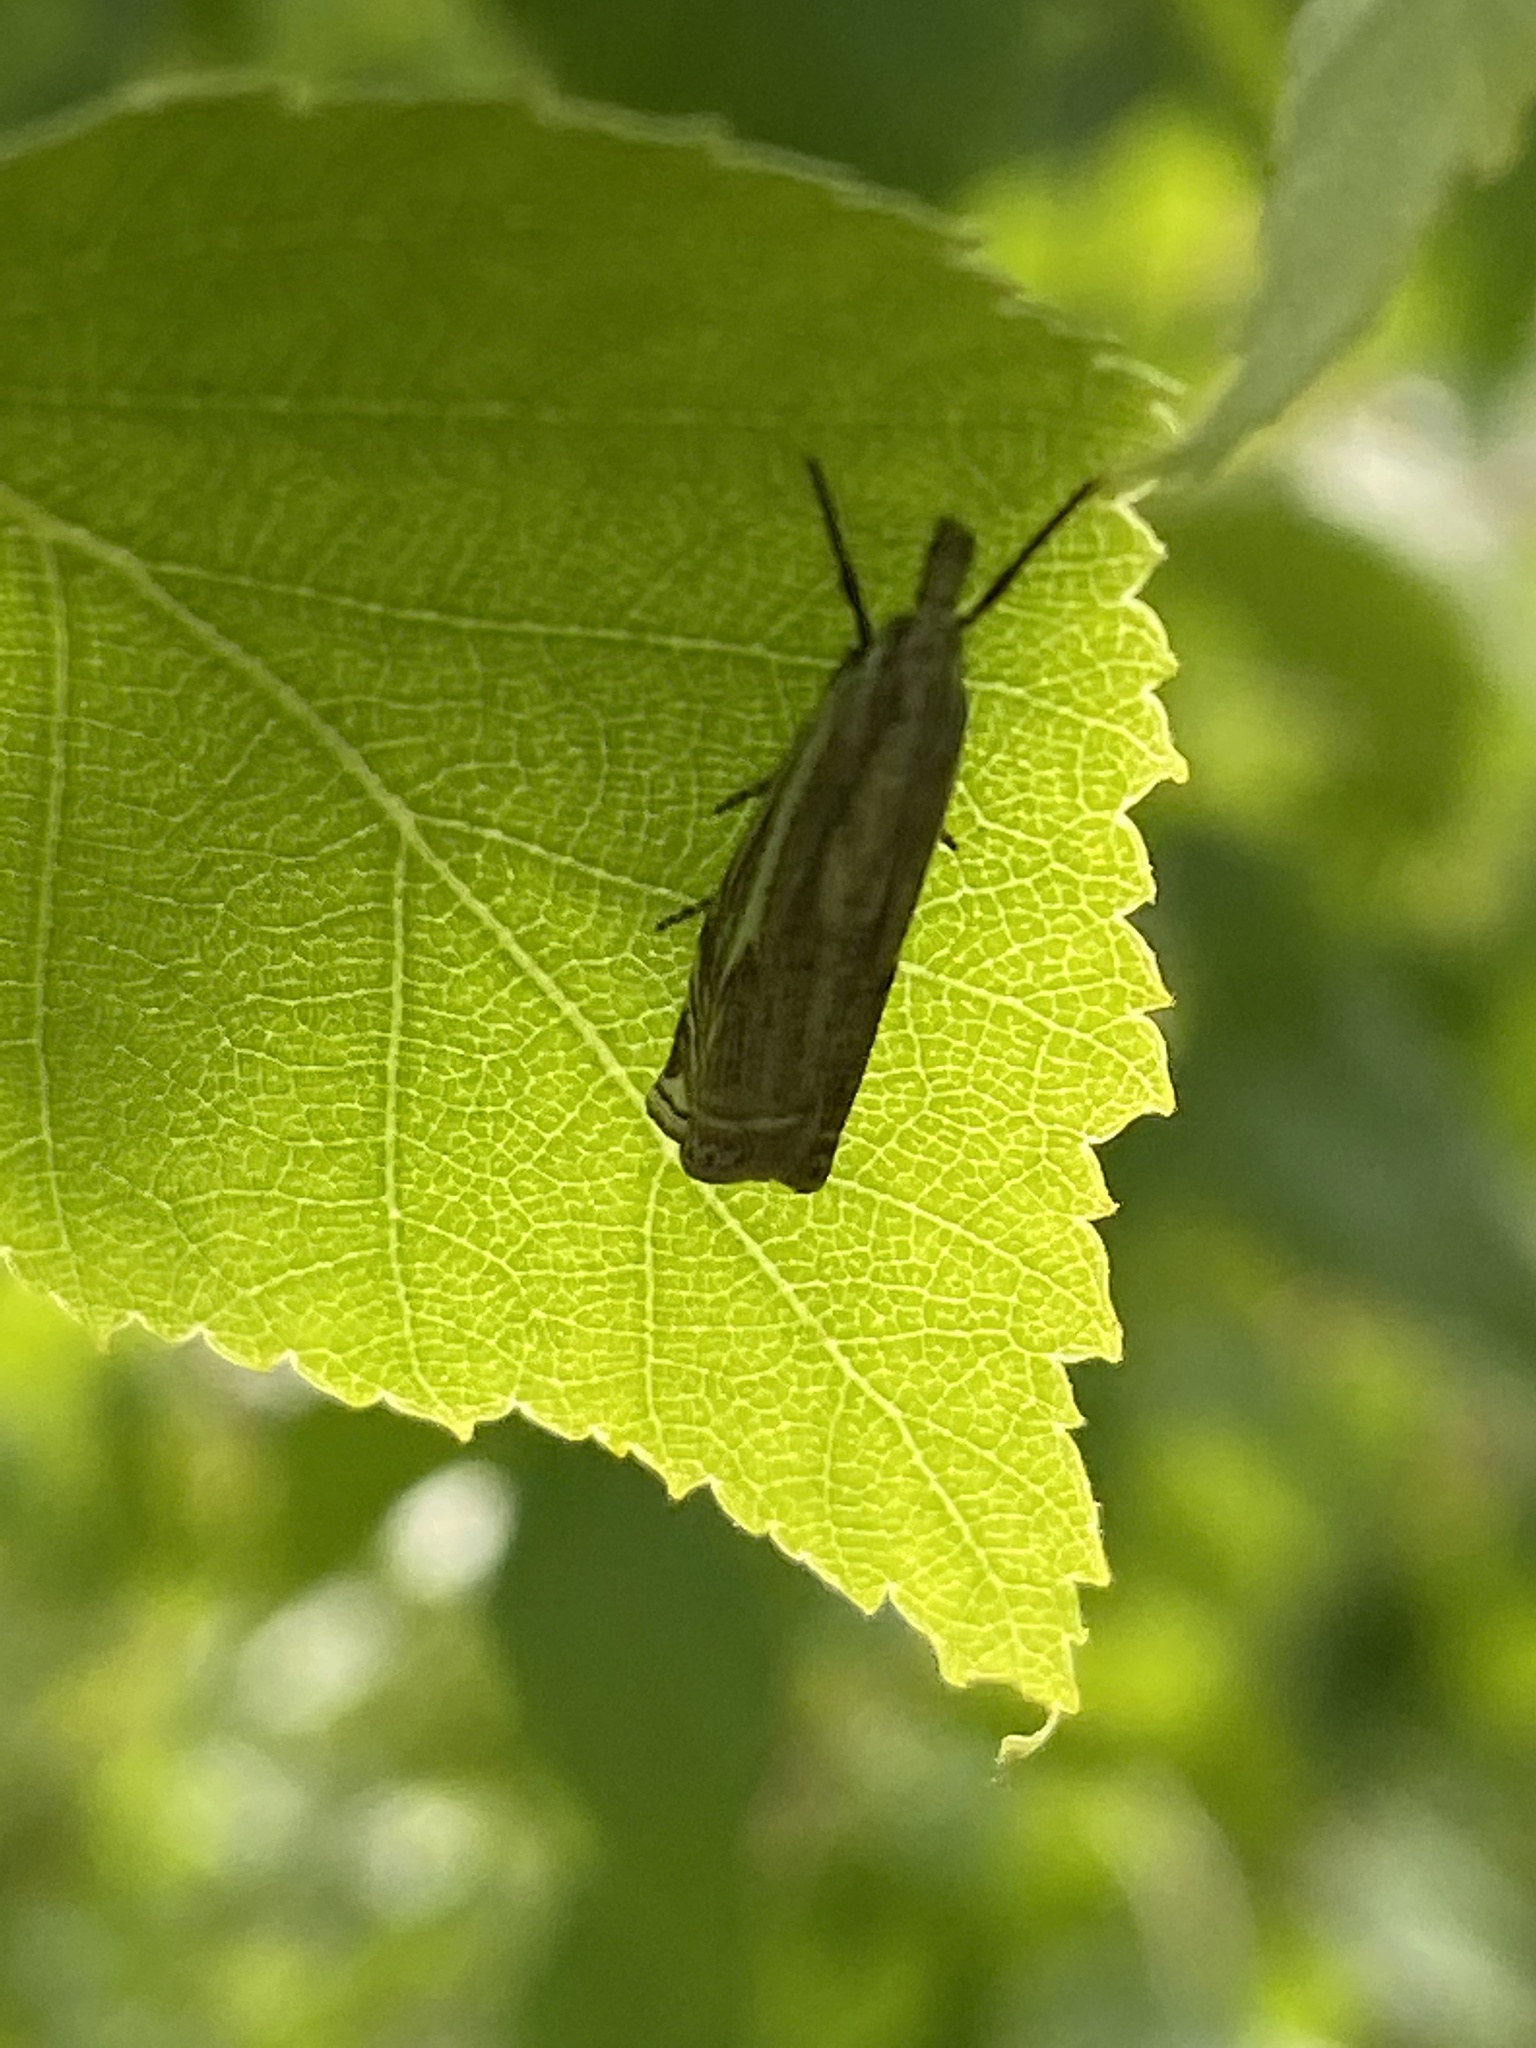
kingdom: Animalia
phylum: Arthropoda
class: Insecta
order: Lepidoptera
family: Crambidae
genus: Crambus
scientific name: Crambus nemorella
